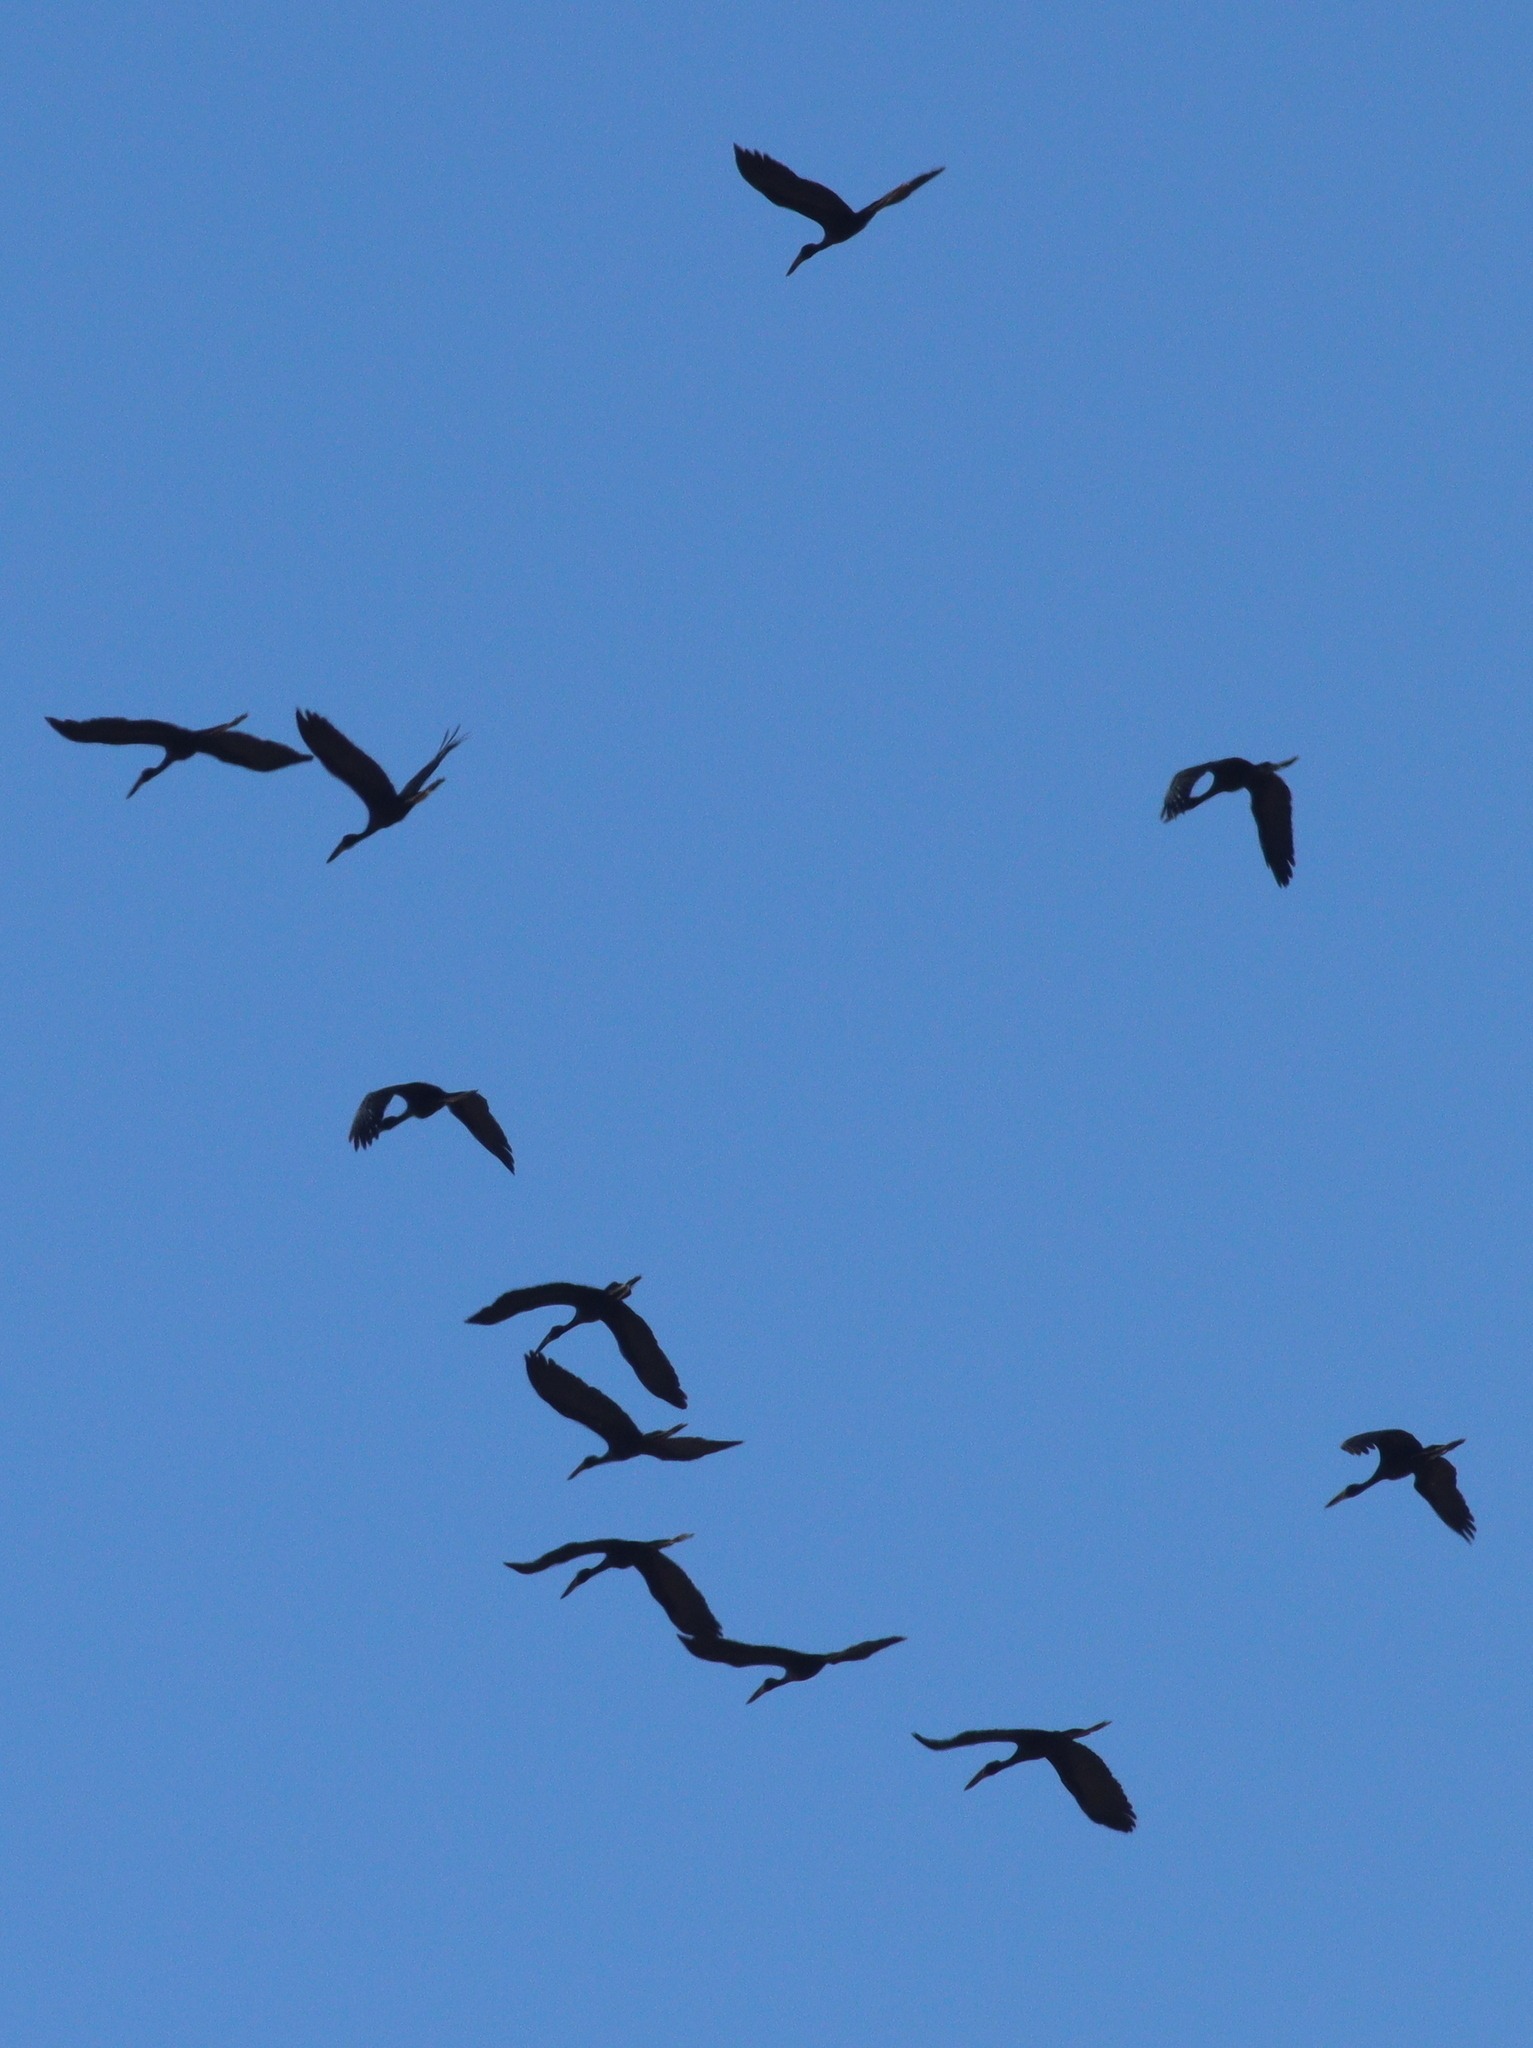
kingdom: Animalia
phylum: Chordata
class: Aves
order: Ciconiiformes
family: Ciconiidae
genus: Anastomus
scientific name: Anastomus lamelligerus
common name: African openbill
